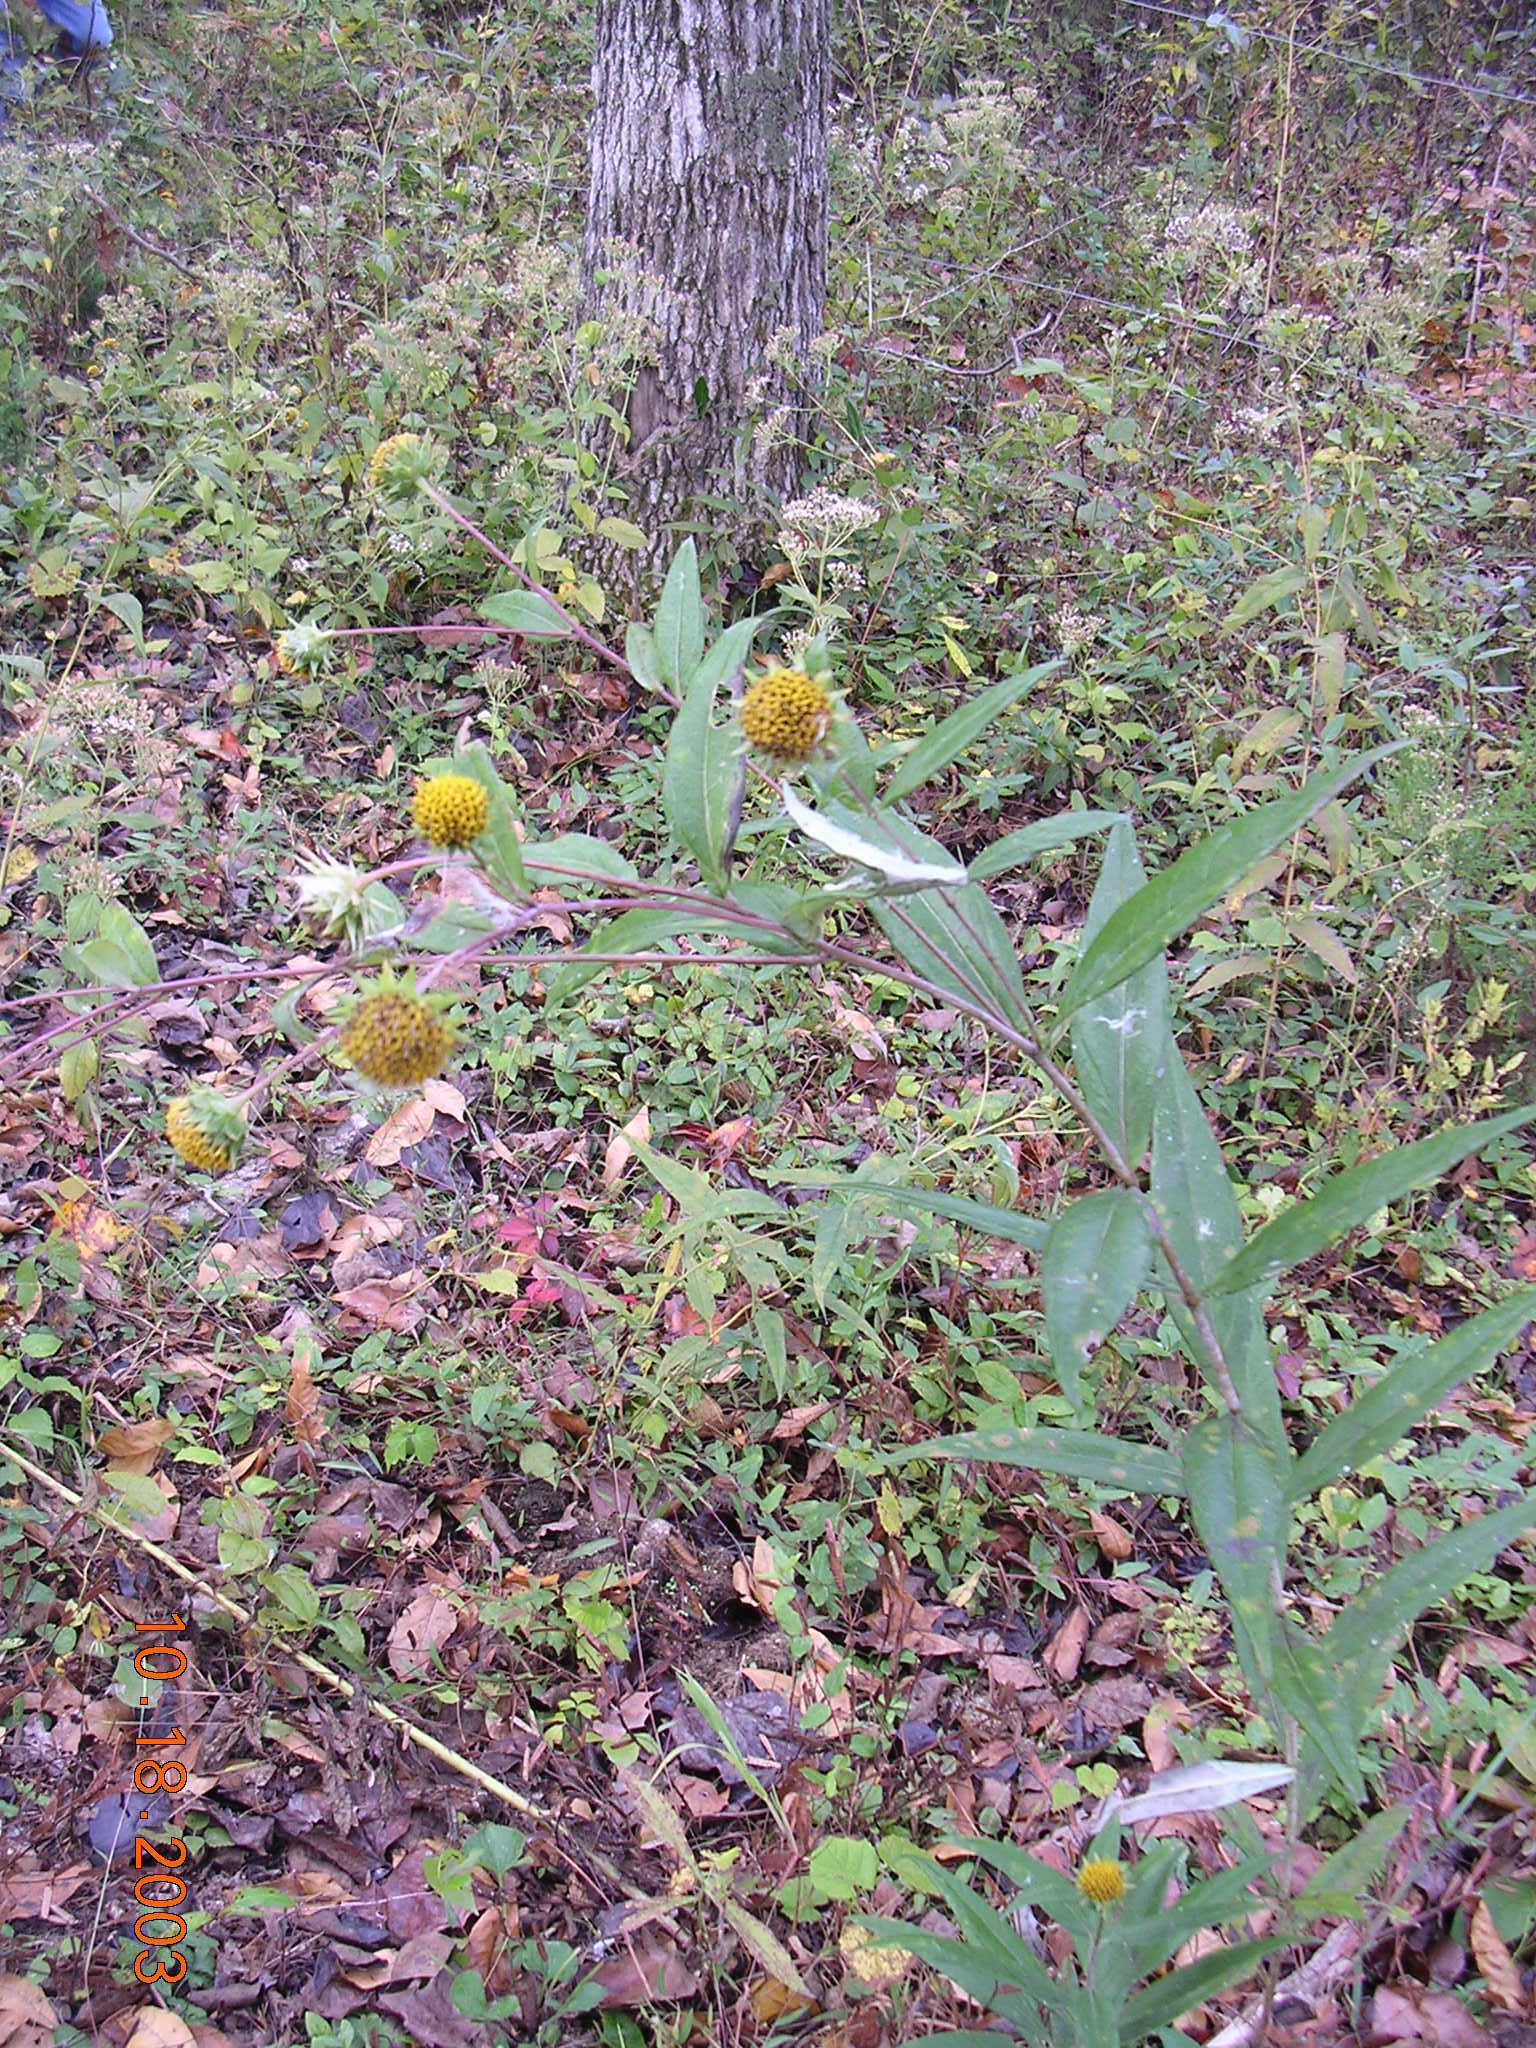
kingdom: Plantae
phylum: Tracheophyta
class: Magnoliopsida
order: Asterales
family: Asteraceae
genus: Helianthus
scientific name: Helianthus eggertii
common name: Eggert's sunflower
